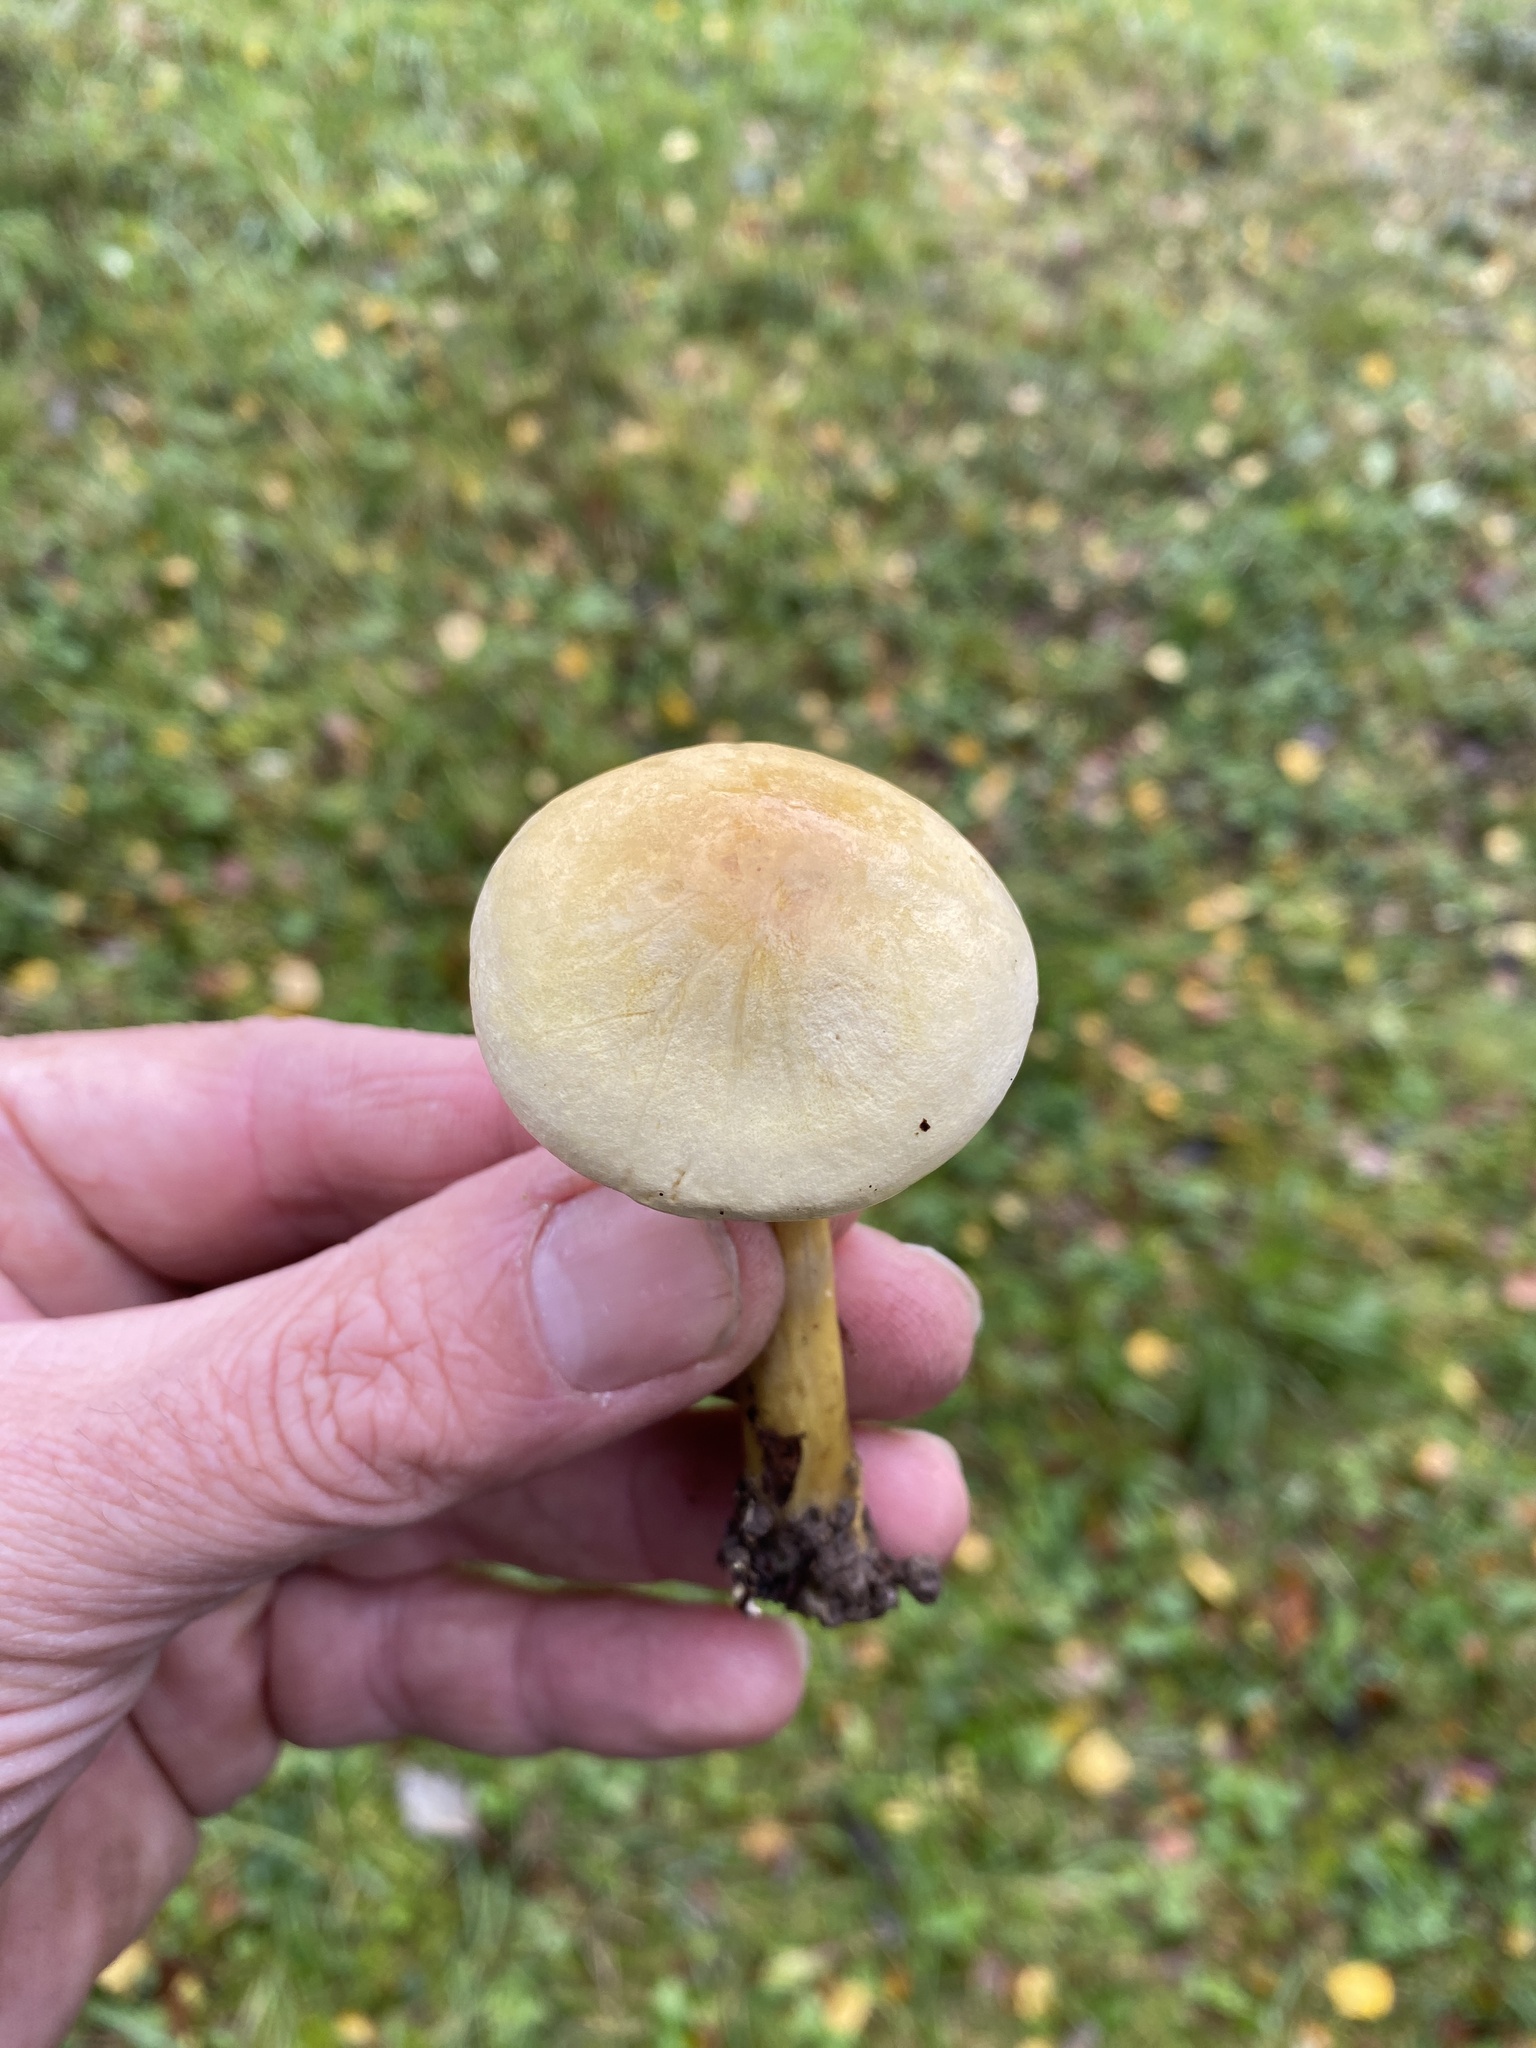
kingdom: Fungi
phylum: Basidiomycota
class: Agaricomycetes
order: Agaricales
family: Tricholomataceae
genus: Tricholoma
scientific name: Tricholoma sulphureum
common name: Stinky knight
